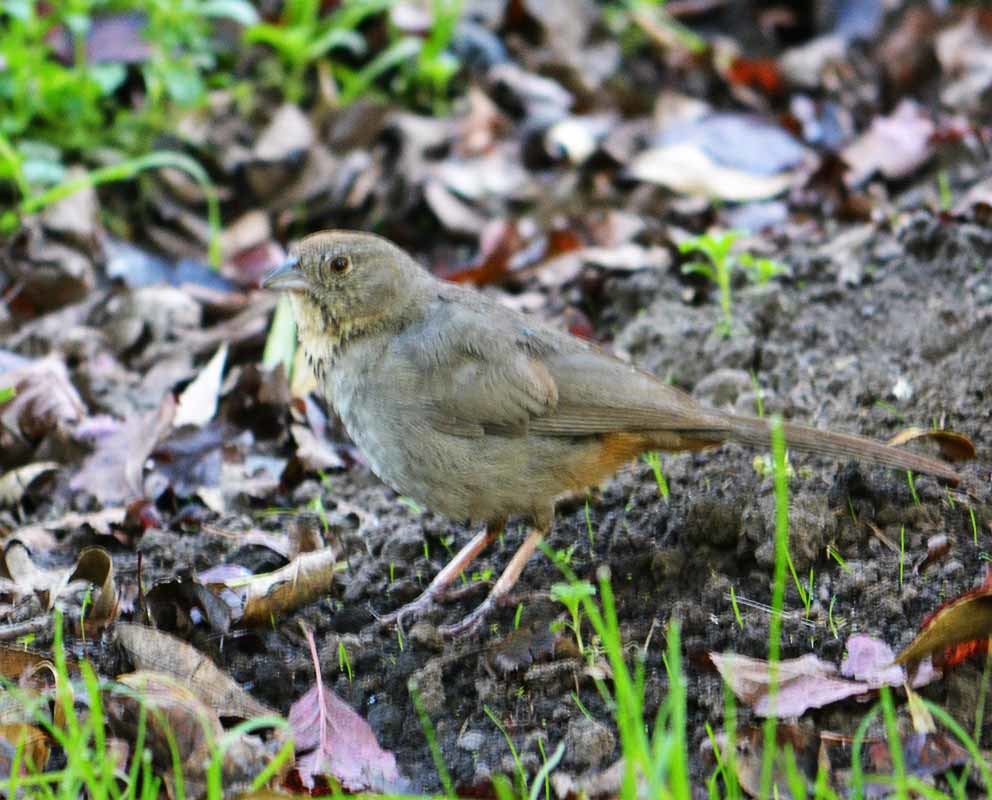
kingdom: Animalia
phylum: Chordata
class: Aves
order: Passeriformes
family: Passerellidae
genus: Melozone
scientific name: Melozone fusca
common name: Canyon towhee
